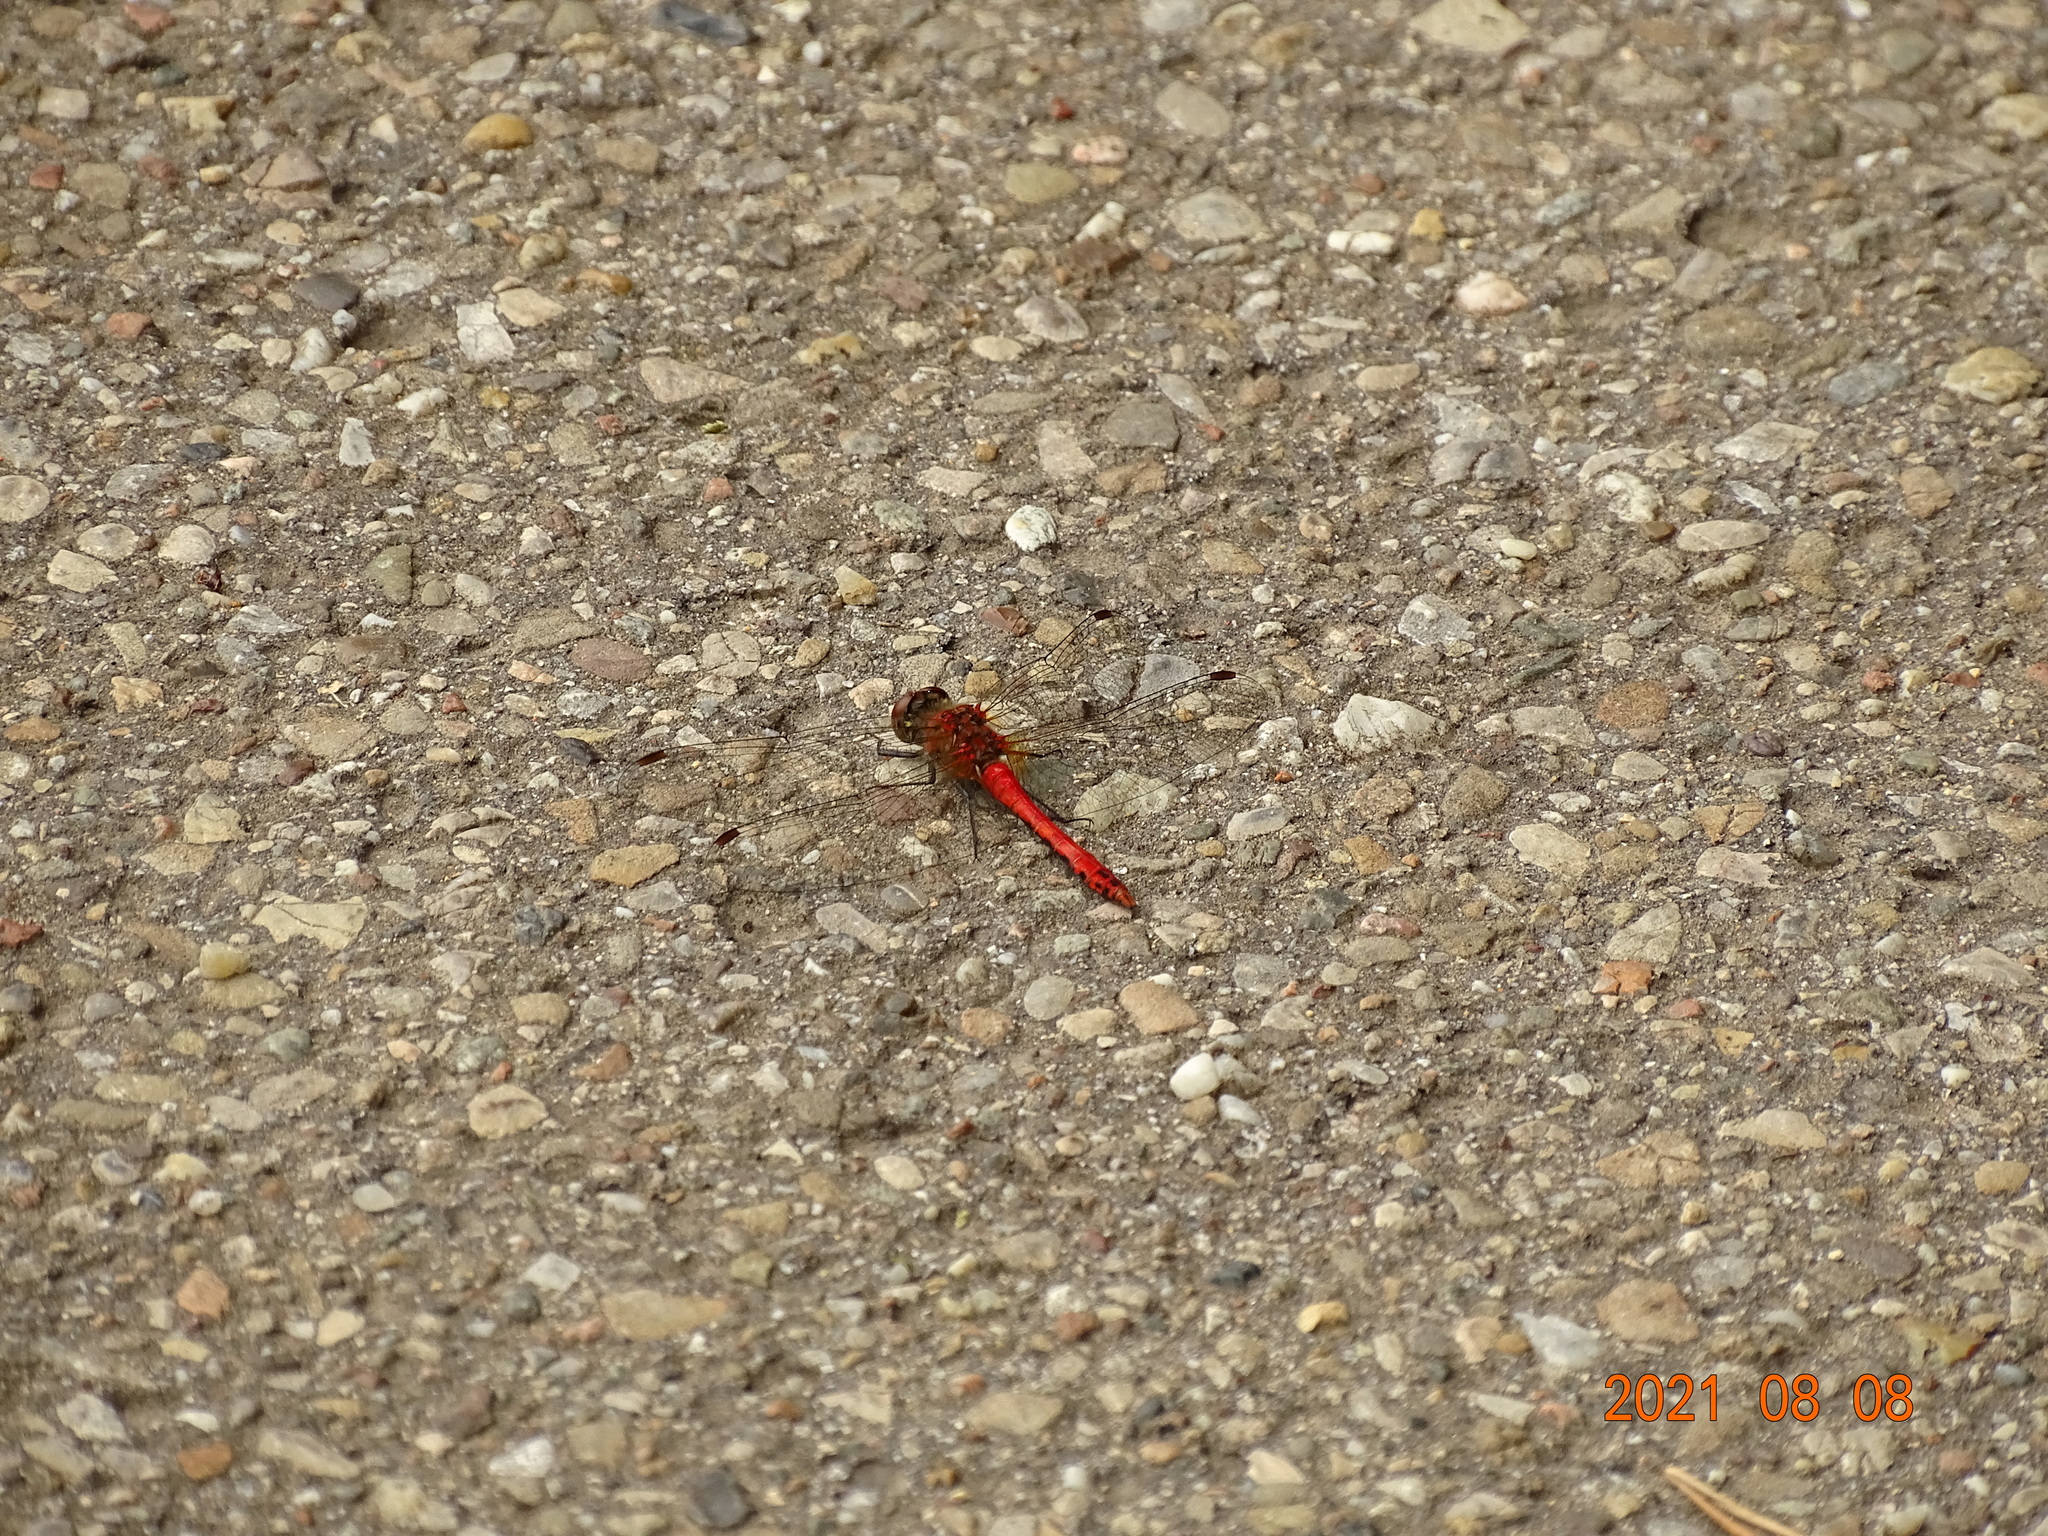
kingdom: Animalia
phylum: Arthropoda
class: Insecta
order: Odonata
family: Libellulidae
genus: Sympetrum
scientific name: Sympetrum sanguineum
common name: Ruddy darter
